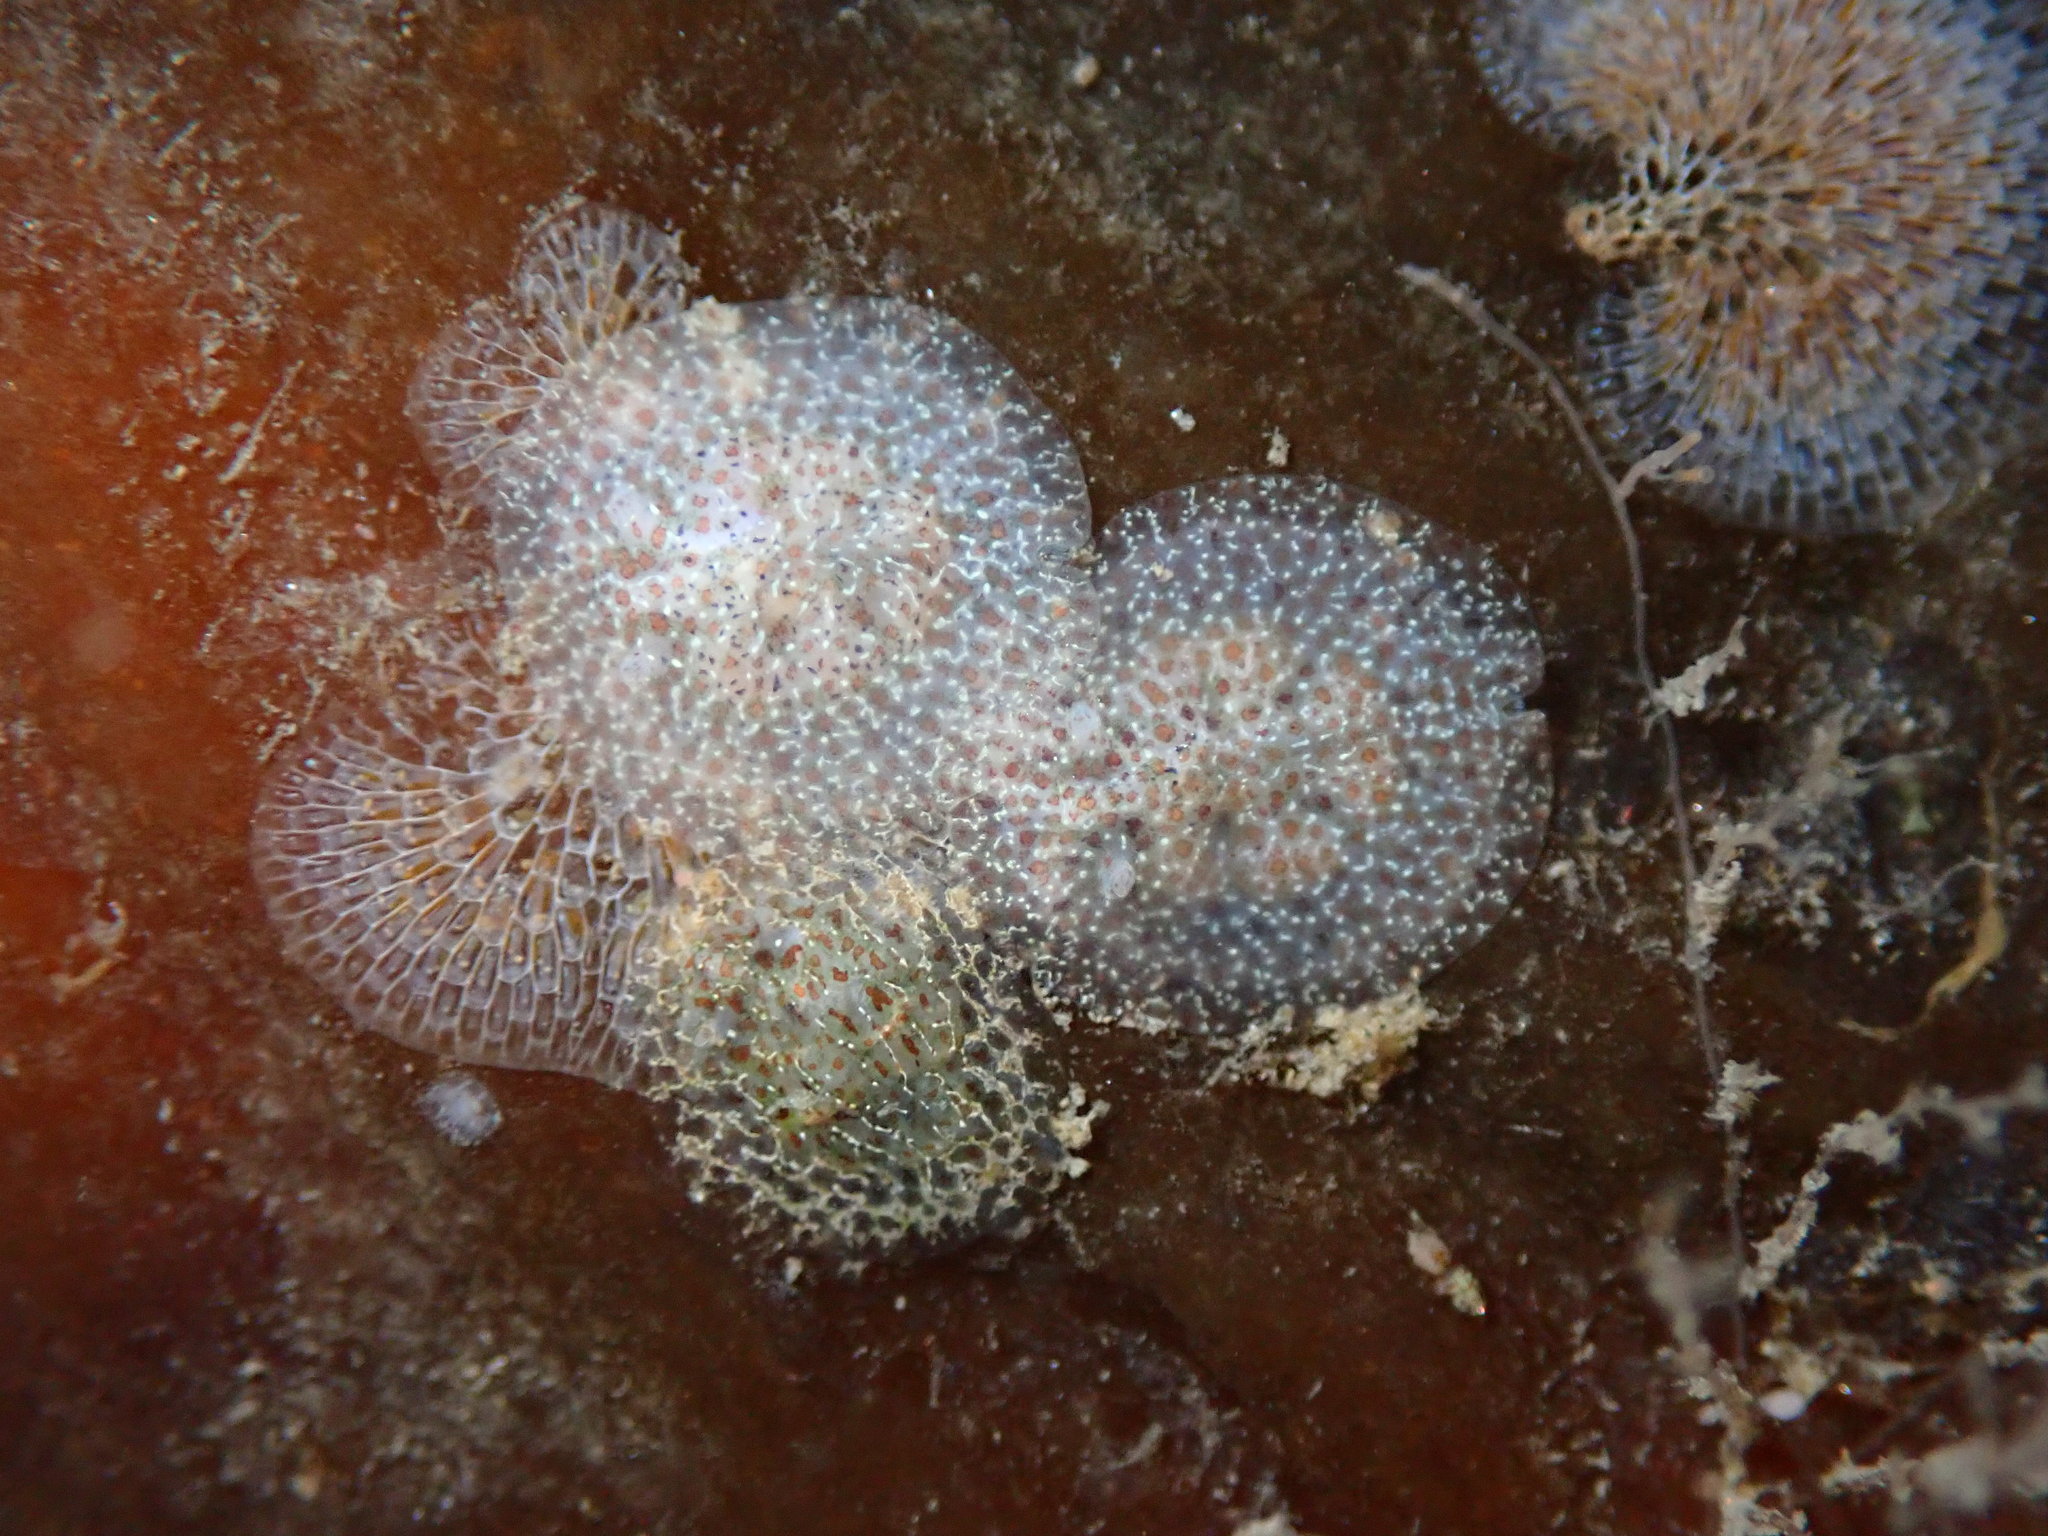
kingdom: Animalia
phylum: Mollusca
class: Gastropoda
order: Nudibranchia
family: Corambidae
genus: Corambe
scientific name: Corambe pacifica
